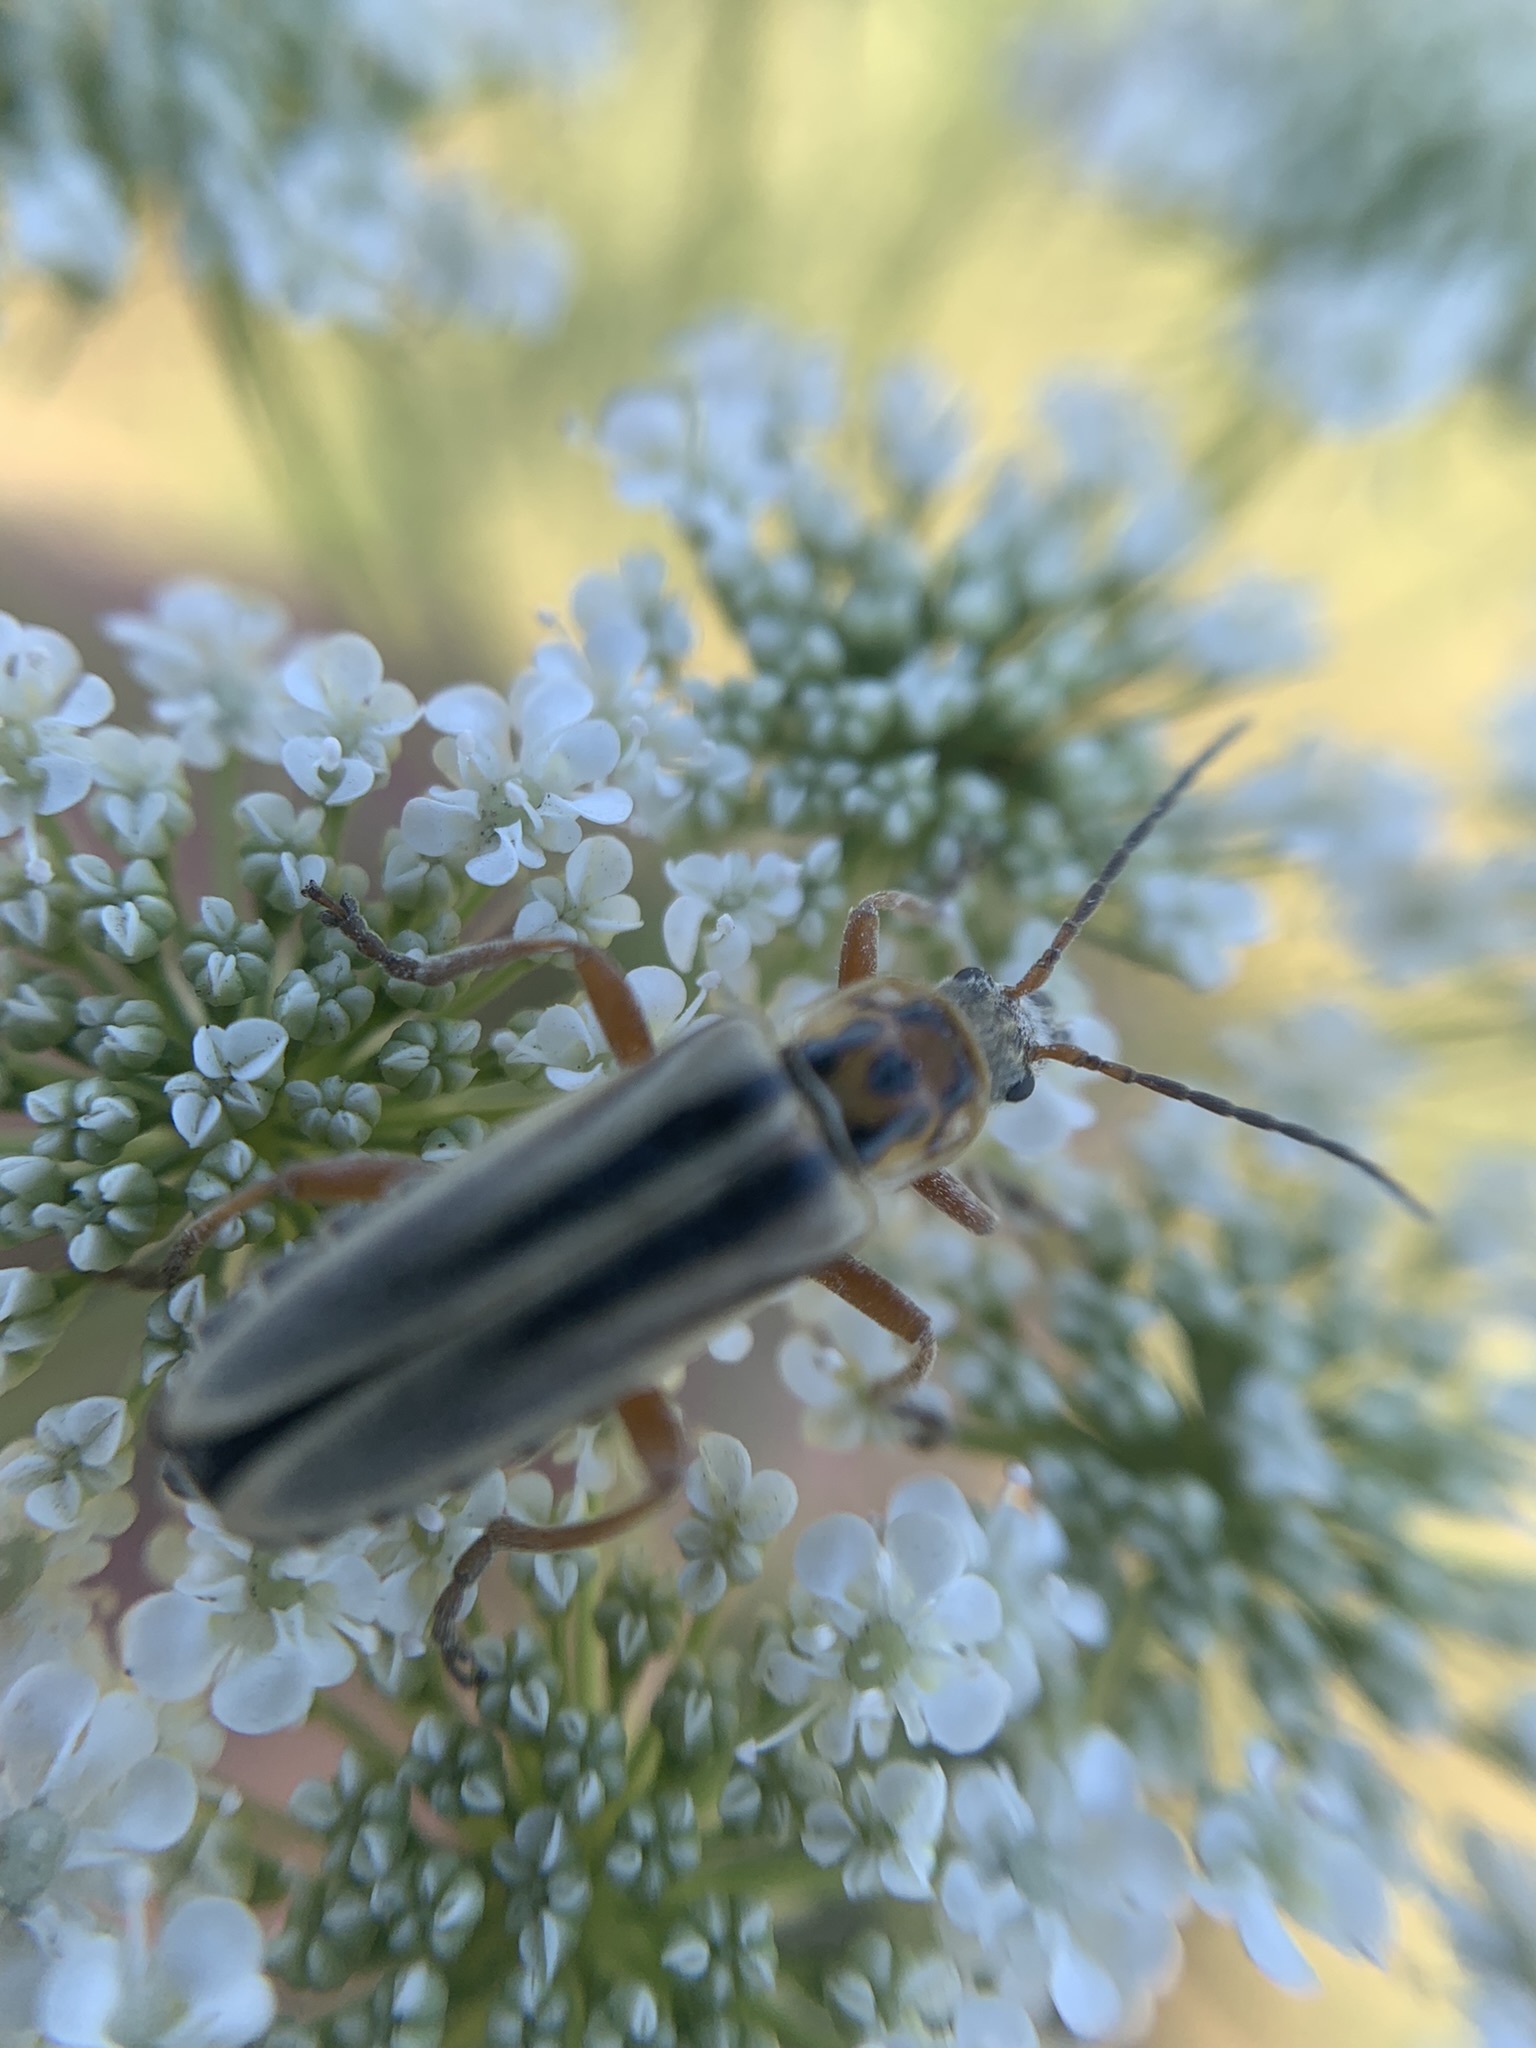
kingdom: Animalia
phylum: Arthropoda
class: Insecta
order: Coleoptera
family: Cantharidae
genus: Chauliognathus
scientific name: Chauliognathus
